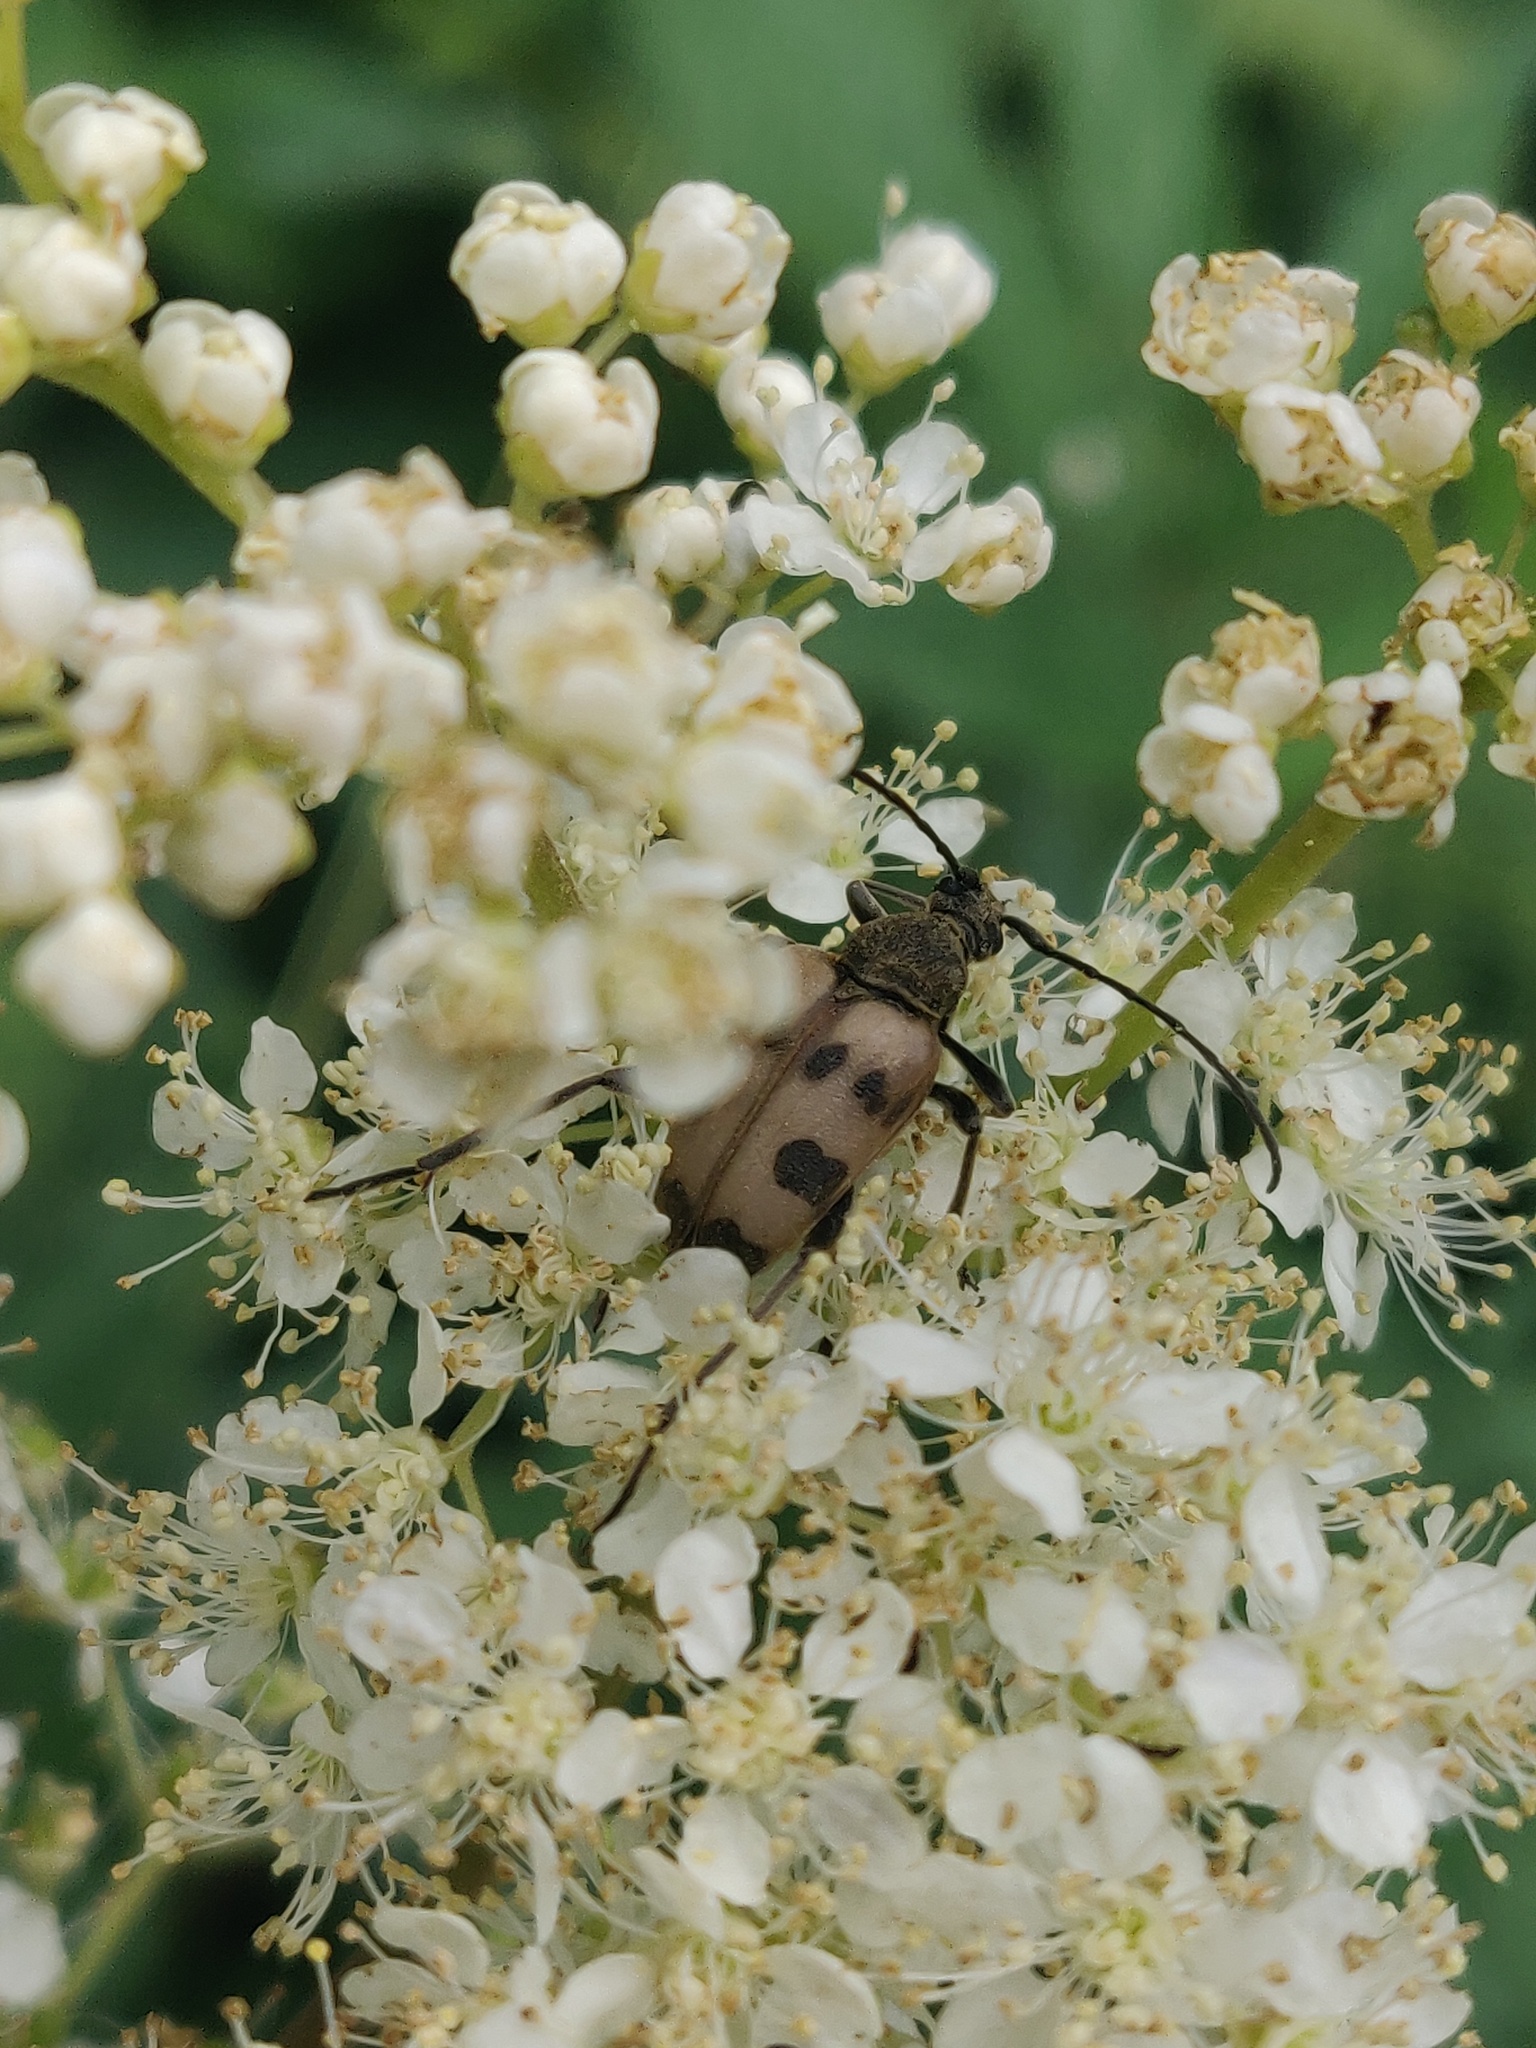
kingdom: Animalia
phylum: Arthropoda
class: Insecta
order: Coleoptera
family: Cerambycidae
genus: Pachytodes
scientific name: Pachytodes cerambyciformis
